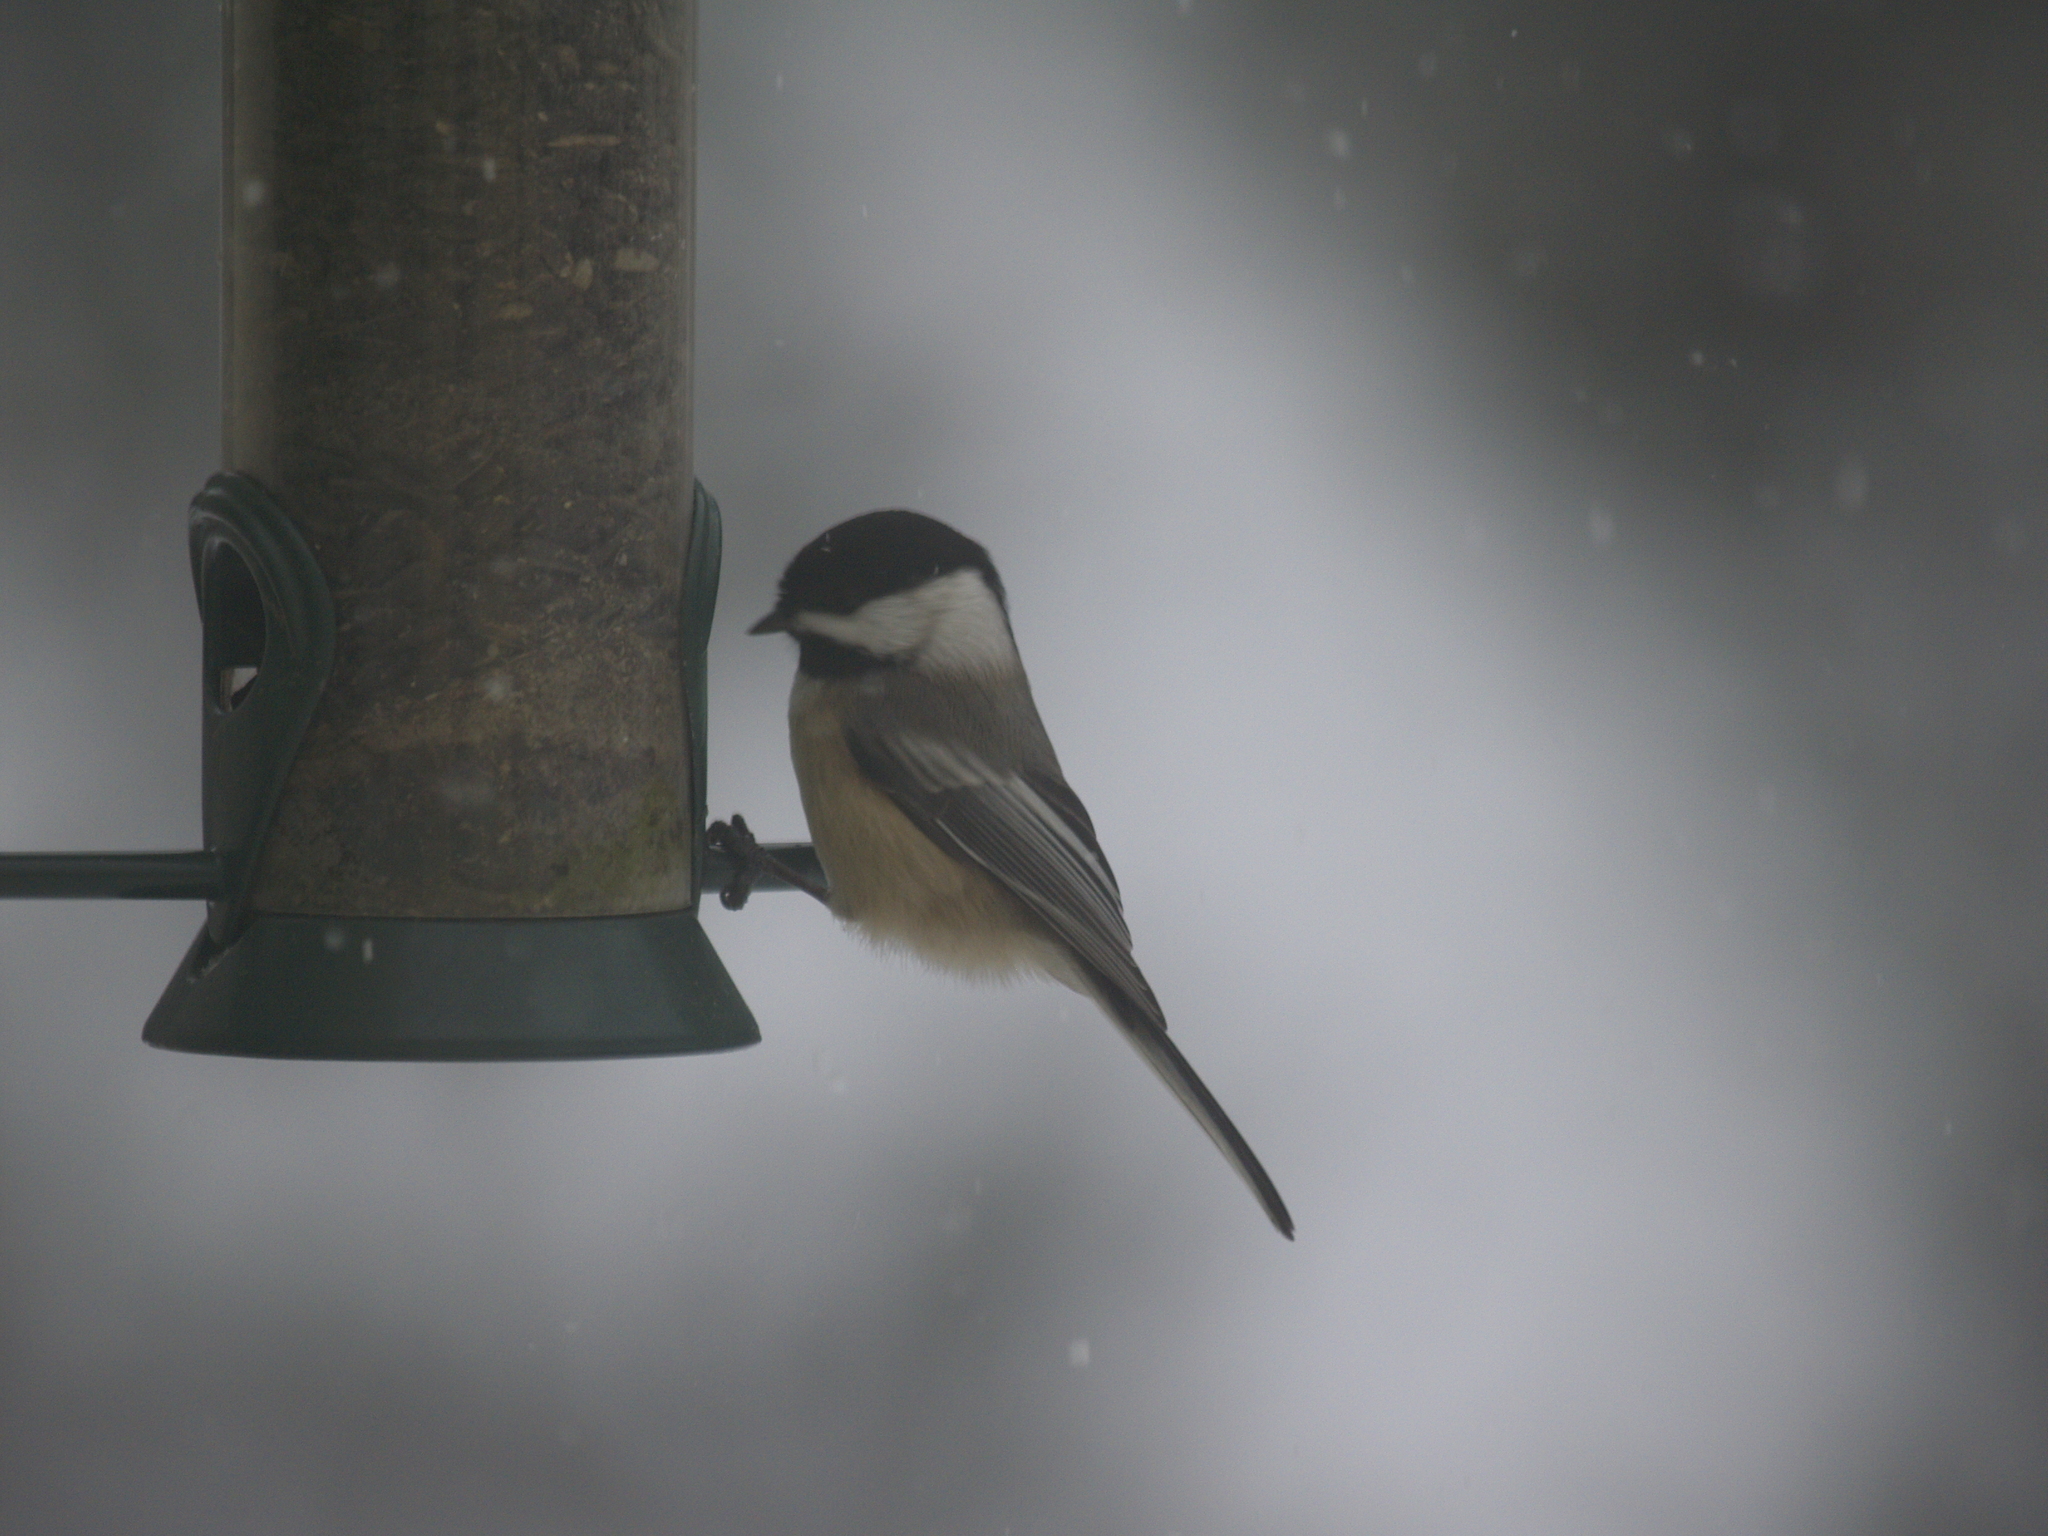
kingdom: Animalia
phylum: Chordata
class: Aves
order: Passeriformes
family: Paridae
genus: Poecile
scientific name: Poecile atricapillus
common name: Black-capped chickadee
